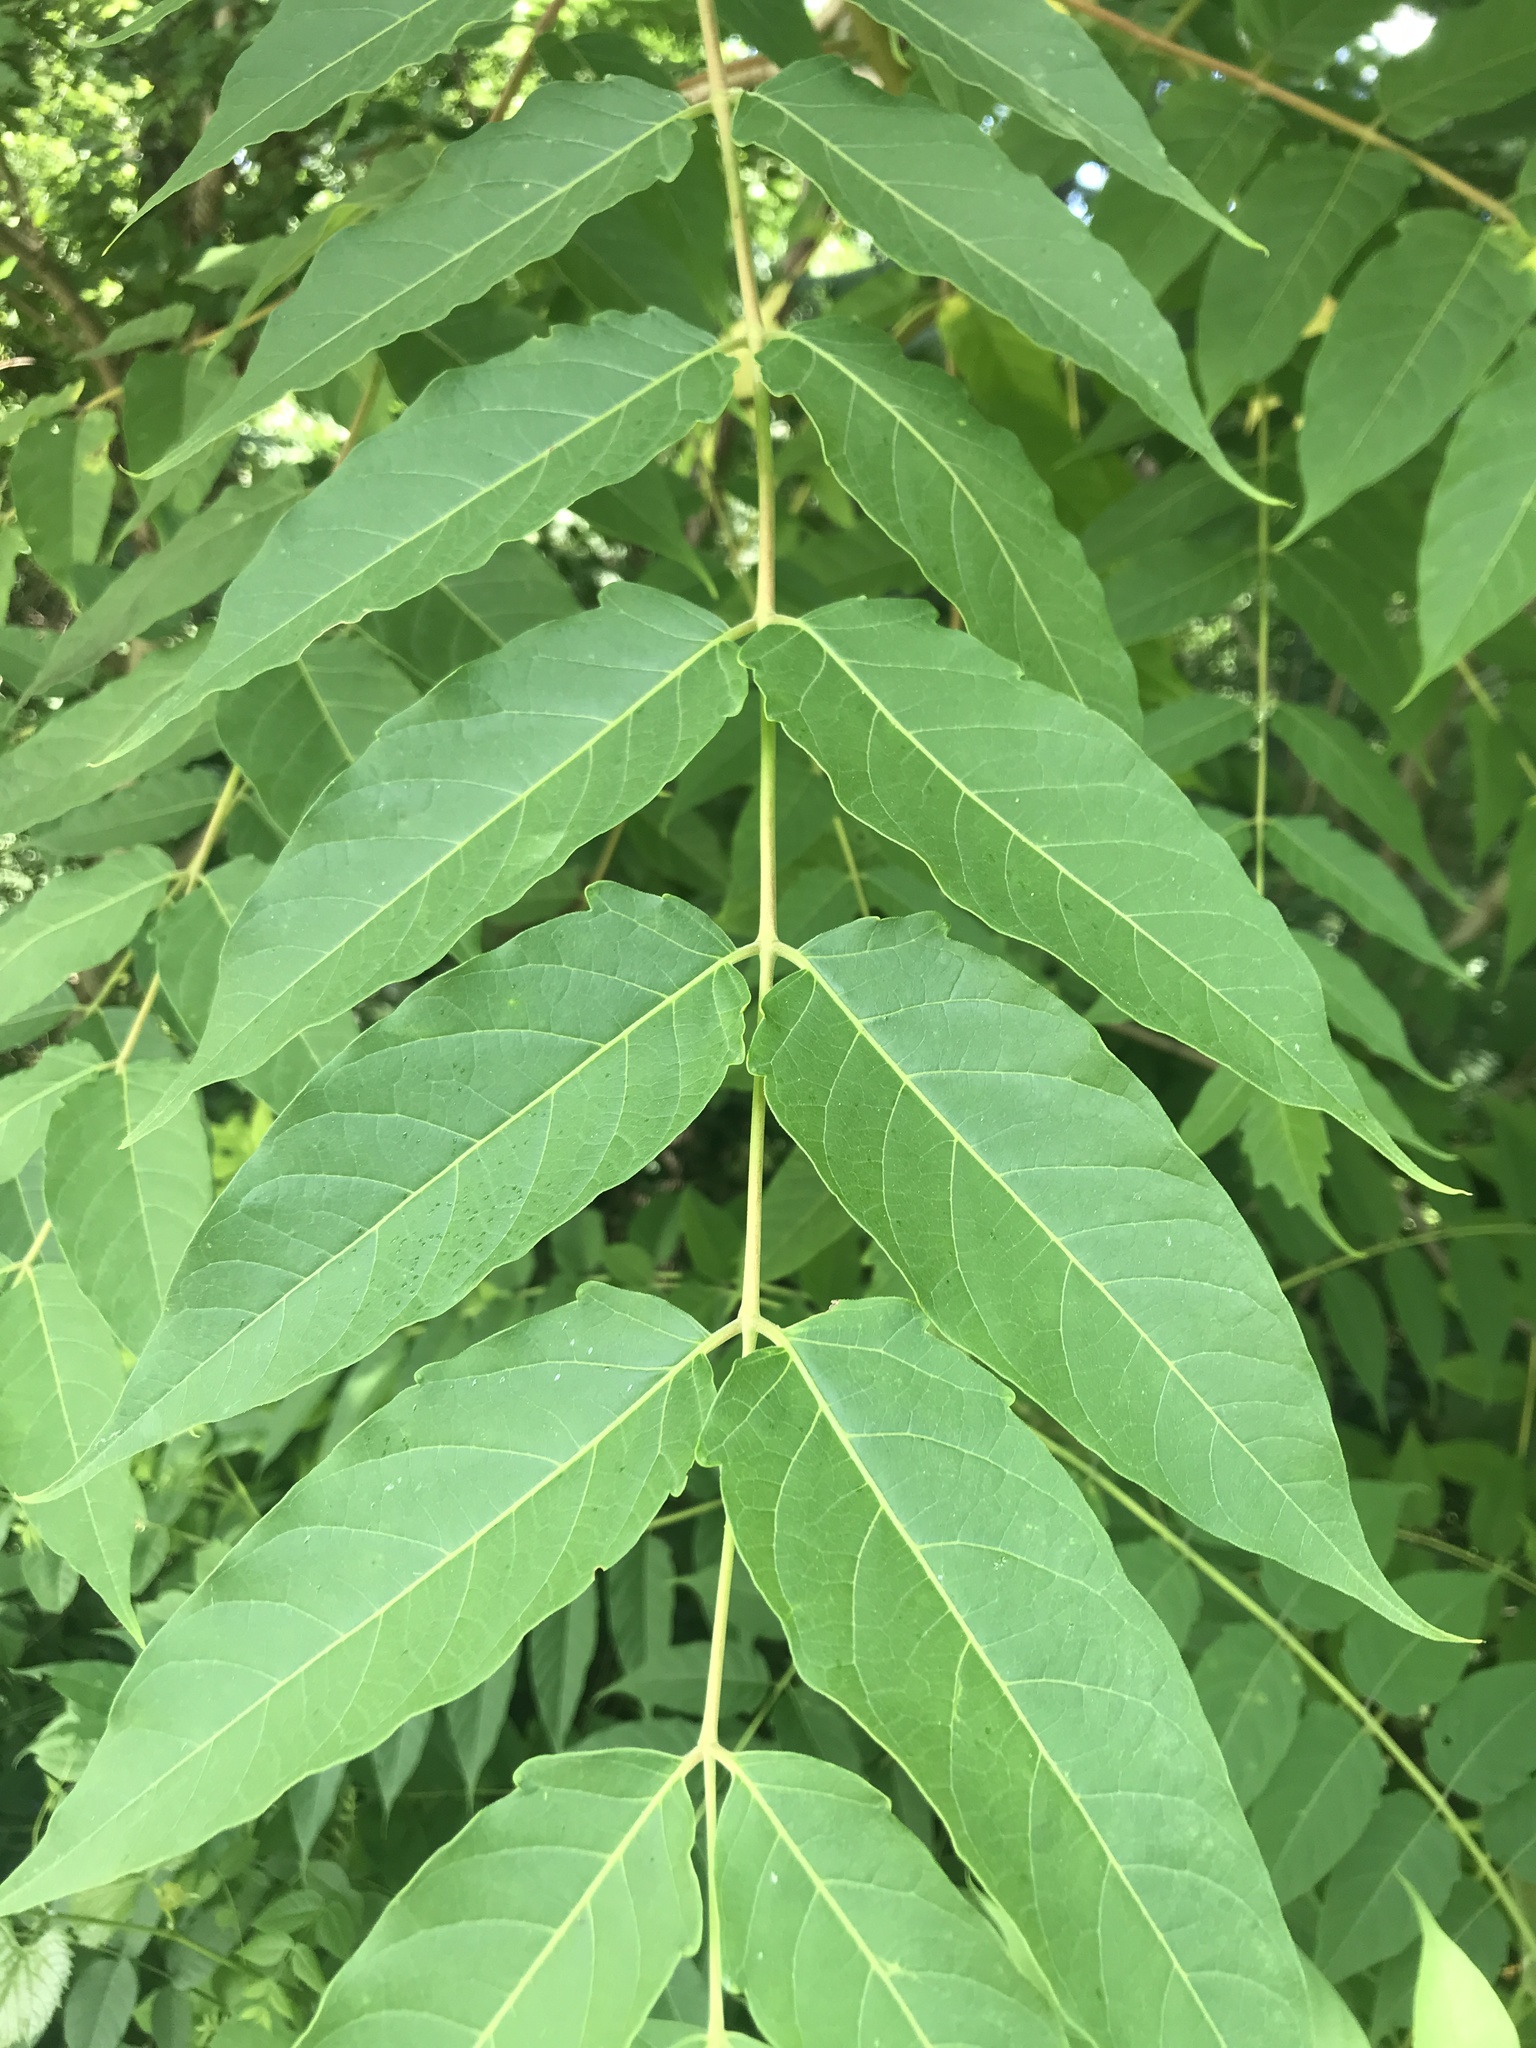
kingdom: Plantae
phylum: Tracheophyta
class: Magnoliopsida
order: Sapindales
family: Simaroubaceae
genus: Ailanthus
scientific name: Ailanthus altissima
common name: Tree-of-heaven
